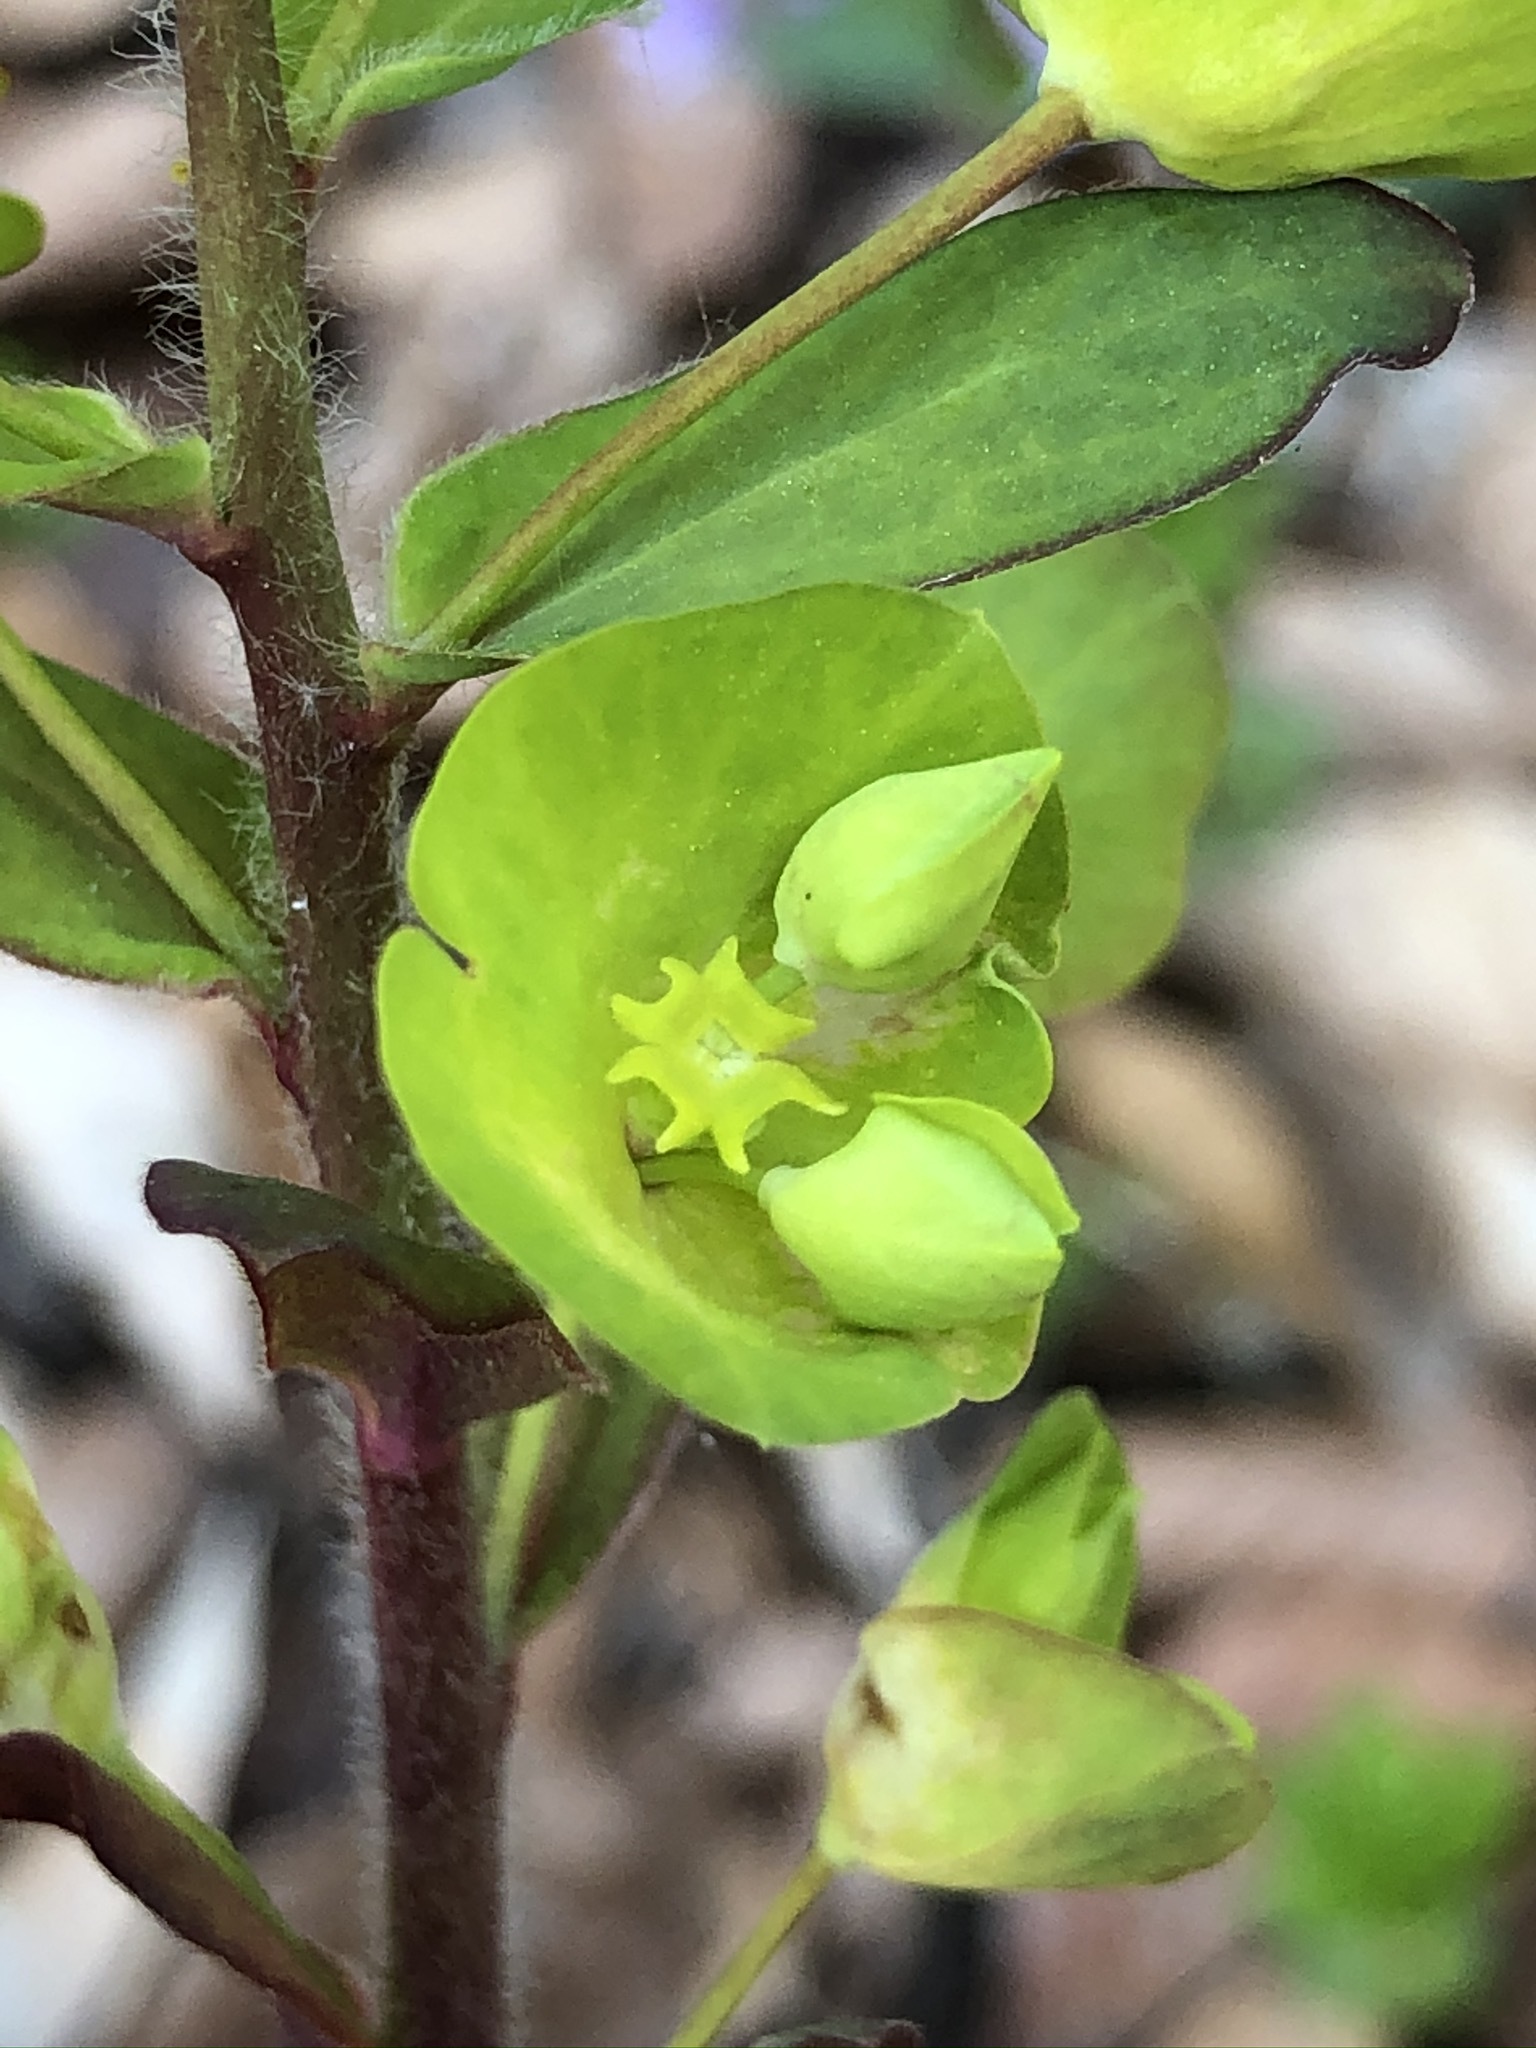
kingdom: Plantae
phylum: Tracheophyta
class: Magnoliopsida
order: Malpighiales
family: Euphorbiaceae
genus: Euphorbia
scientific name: Euphorbia amygdaloides
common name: Wood spurge
